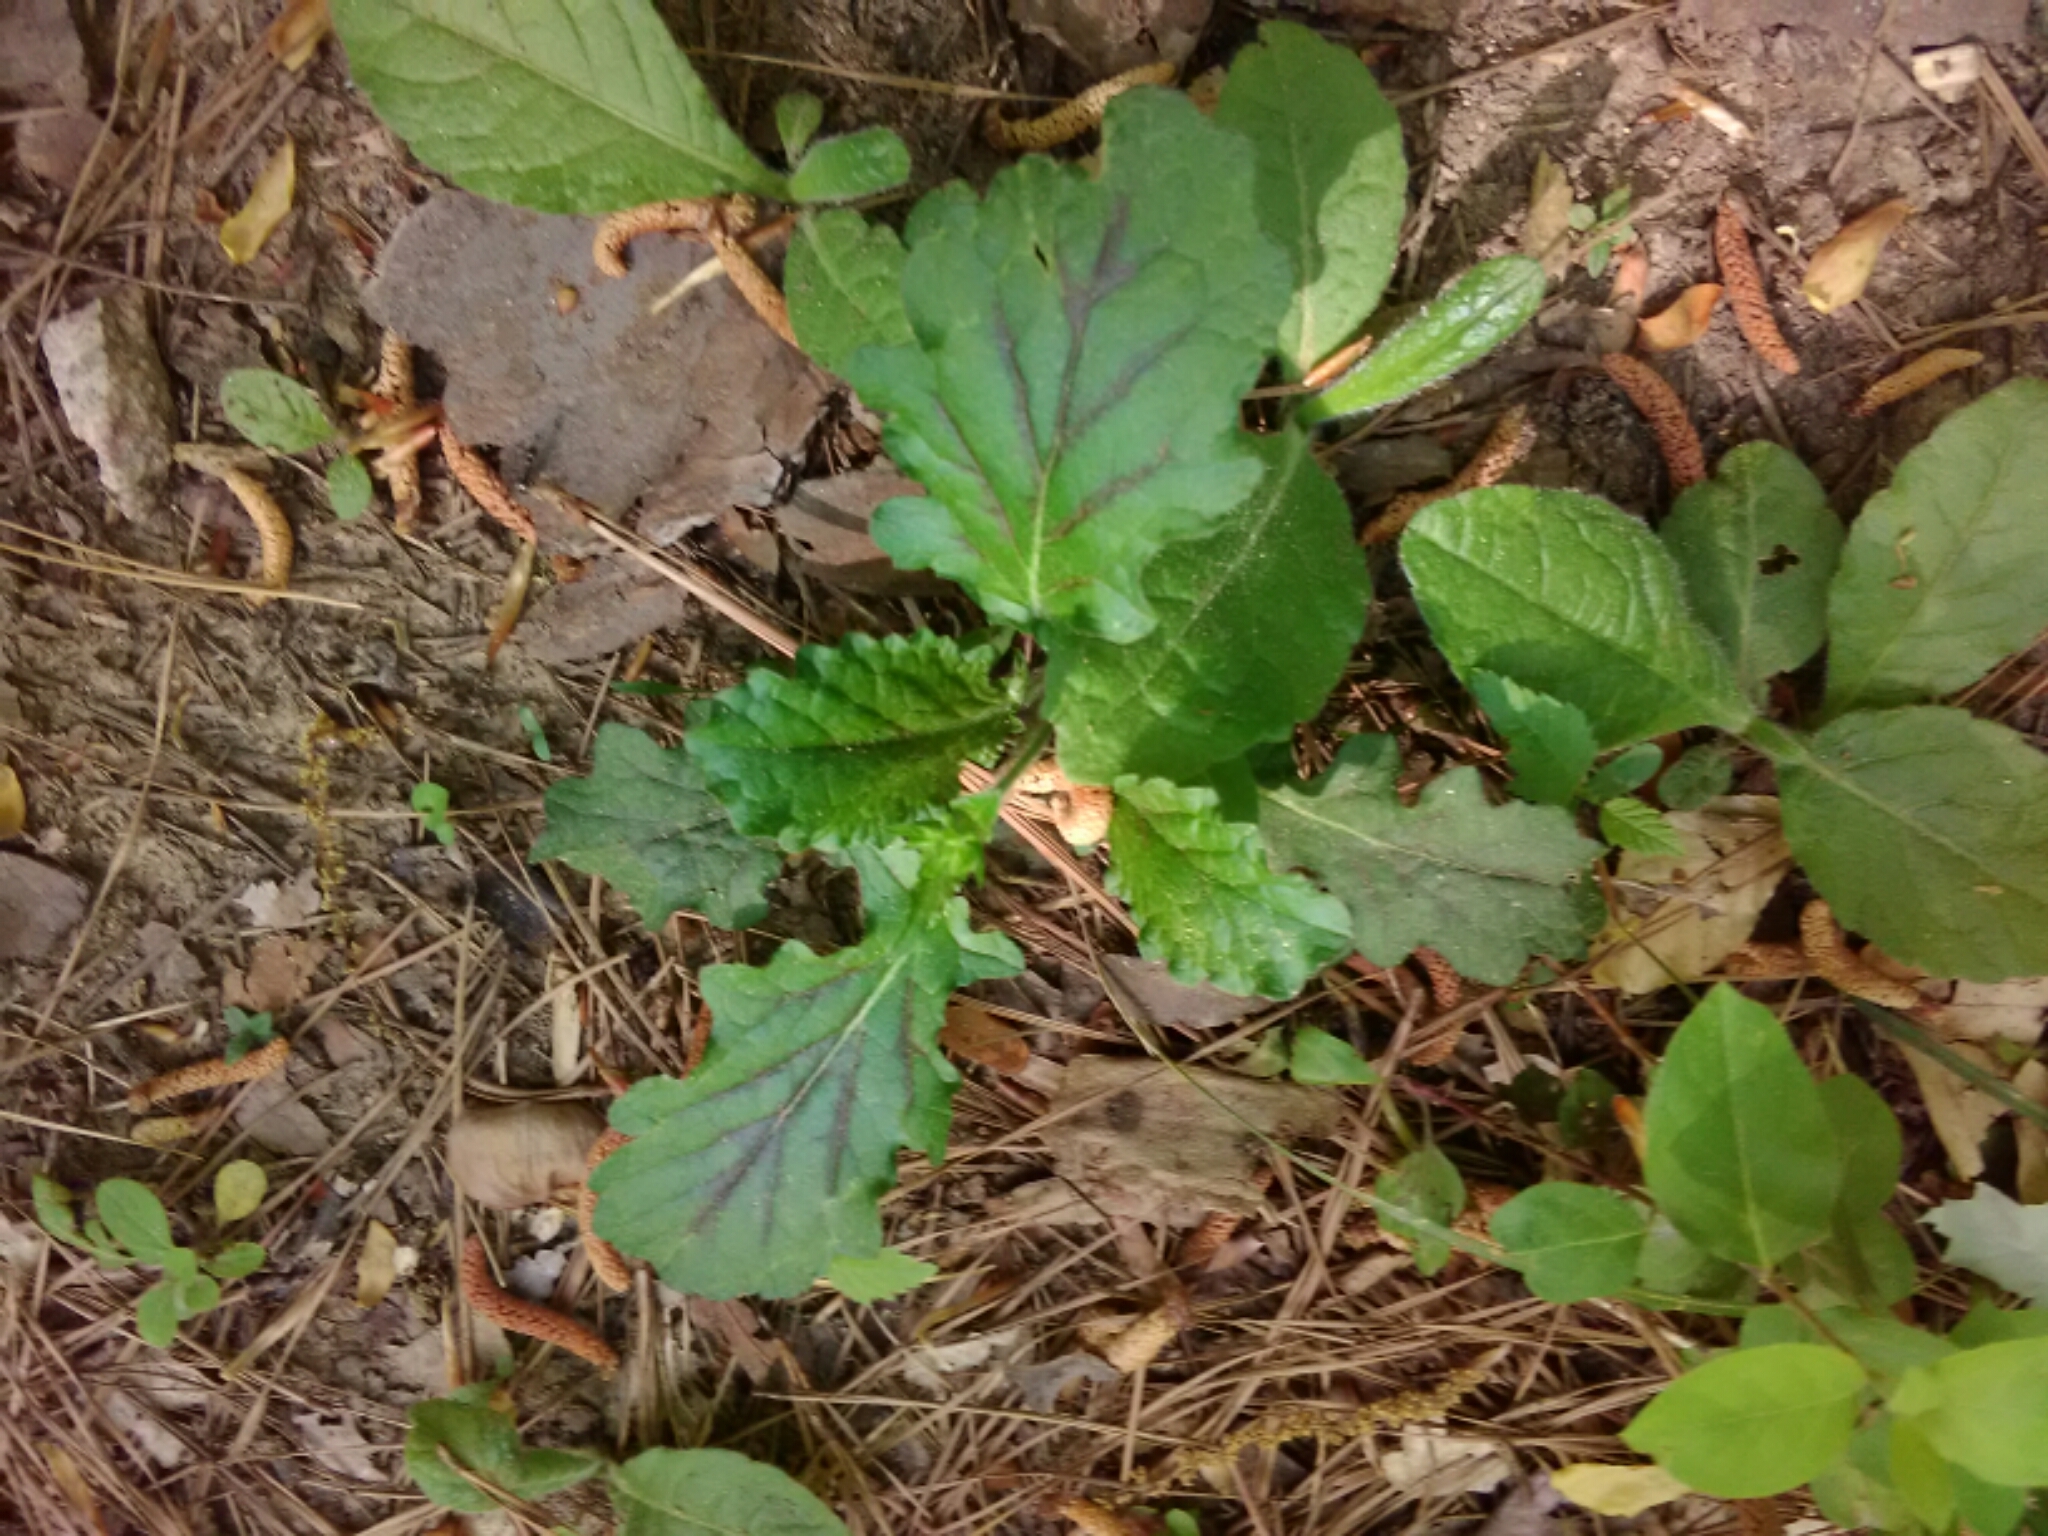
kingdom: Plantae
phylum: Tracheophyta
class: Magnoliopsida
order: Lamiales
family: Lamiaceae
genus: Salvia
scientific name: Salvia lyrata
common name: Cancerweed
